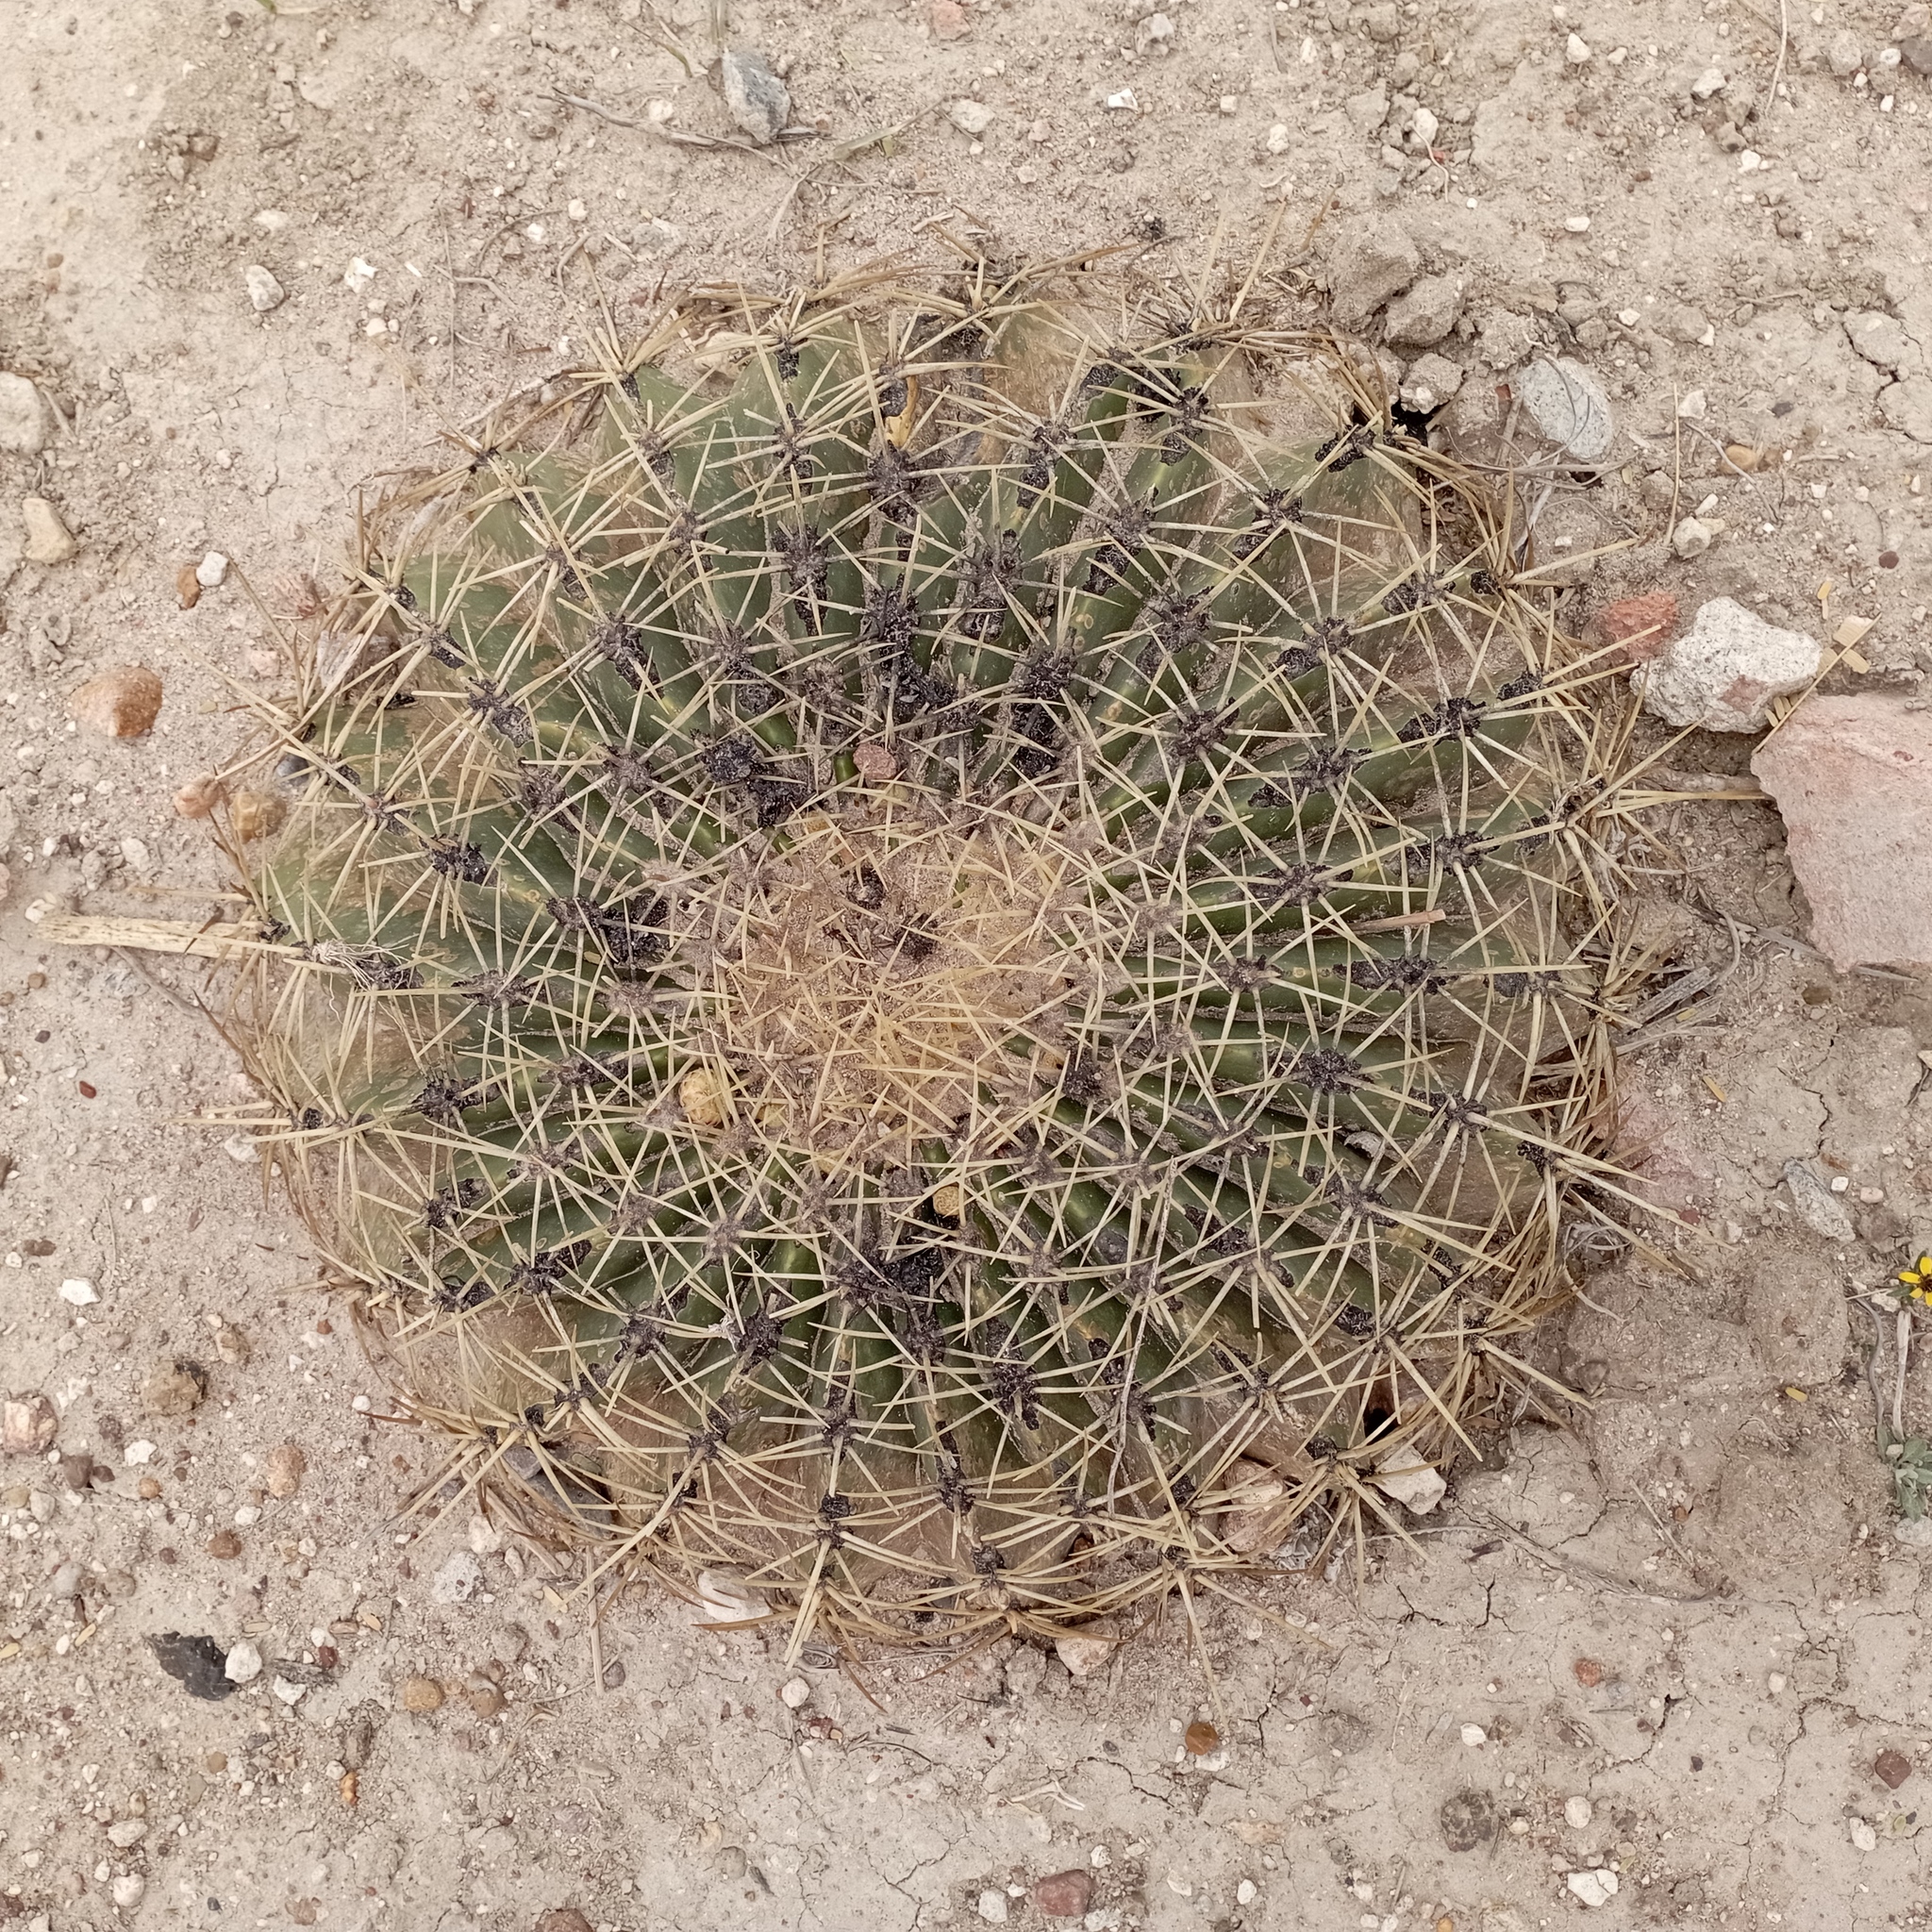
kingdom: Plantae
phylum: Tracheophyta
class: Magnoliopsida
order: Caryophyllales
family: Cactaceae
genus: Bisnaga
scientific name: Bisnaga histrix
